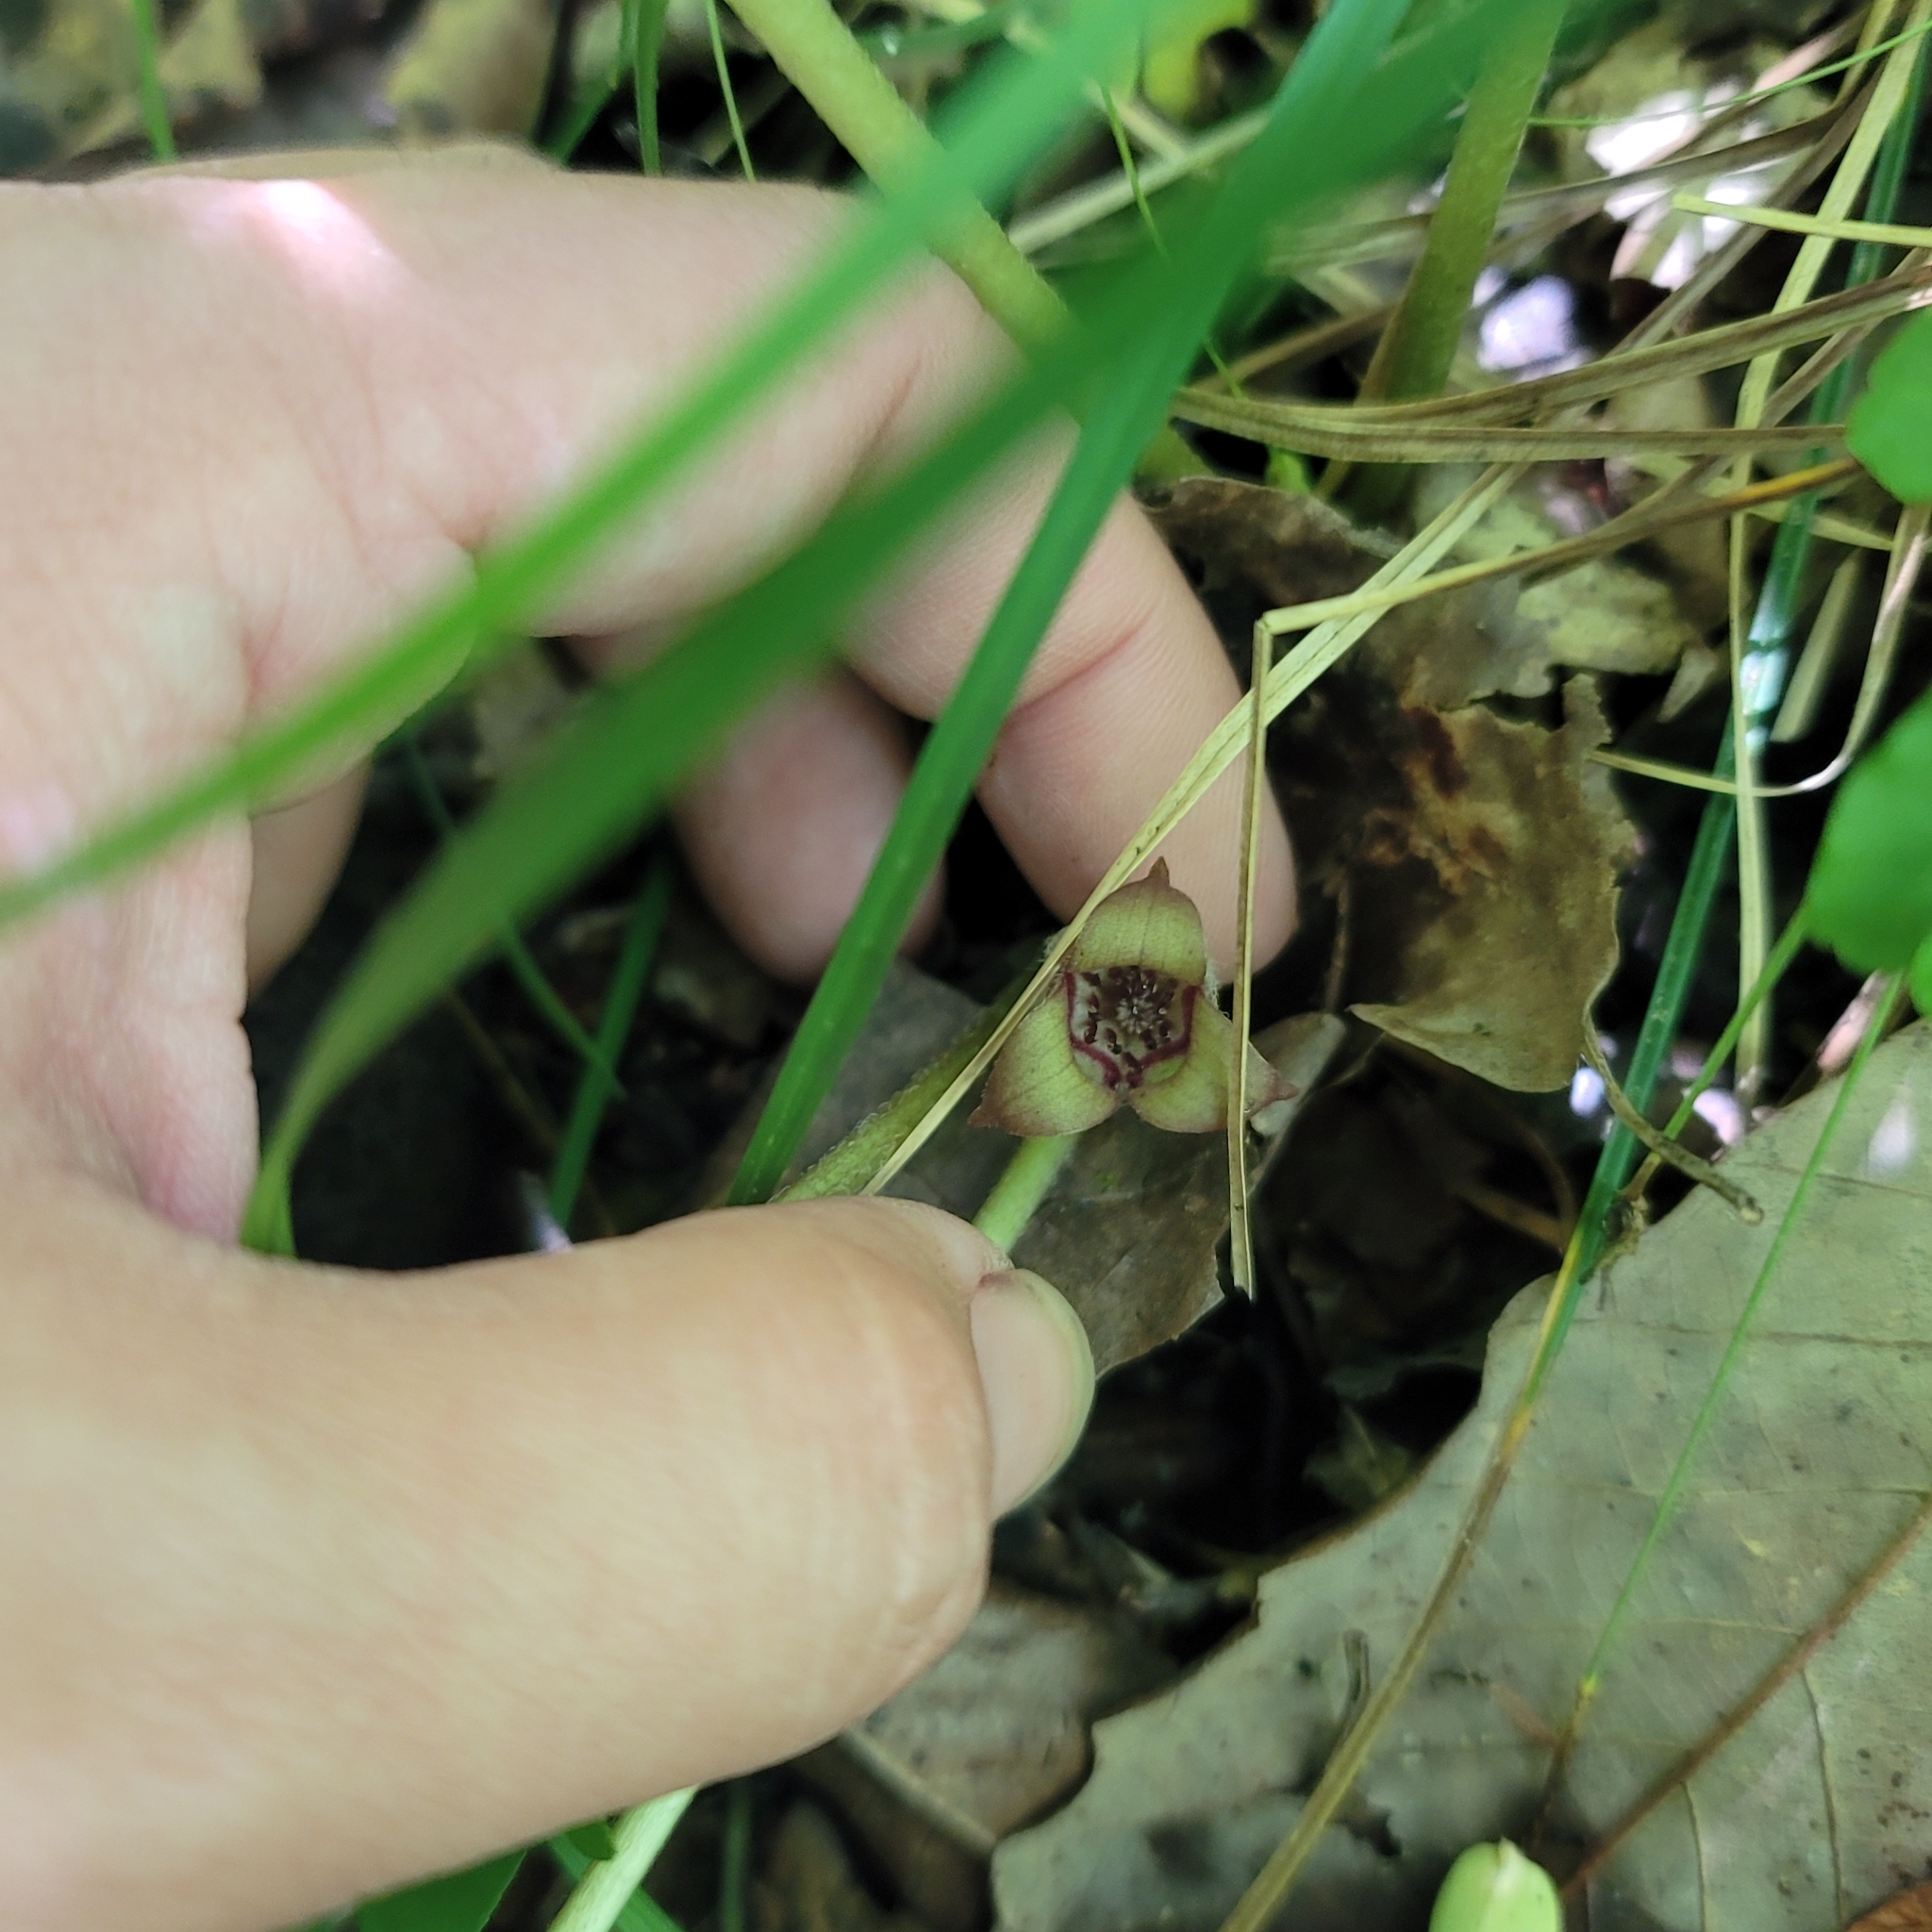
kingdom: Plantae
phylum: Tracheophyta
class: Magnoliopsida
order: Piperales
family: Aristolochiaceae
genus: Asarum
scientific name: Asarum canadense
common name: Wild ginger
